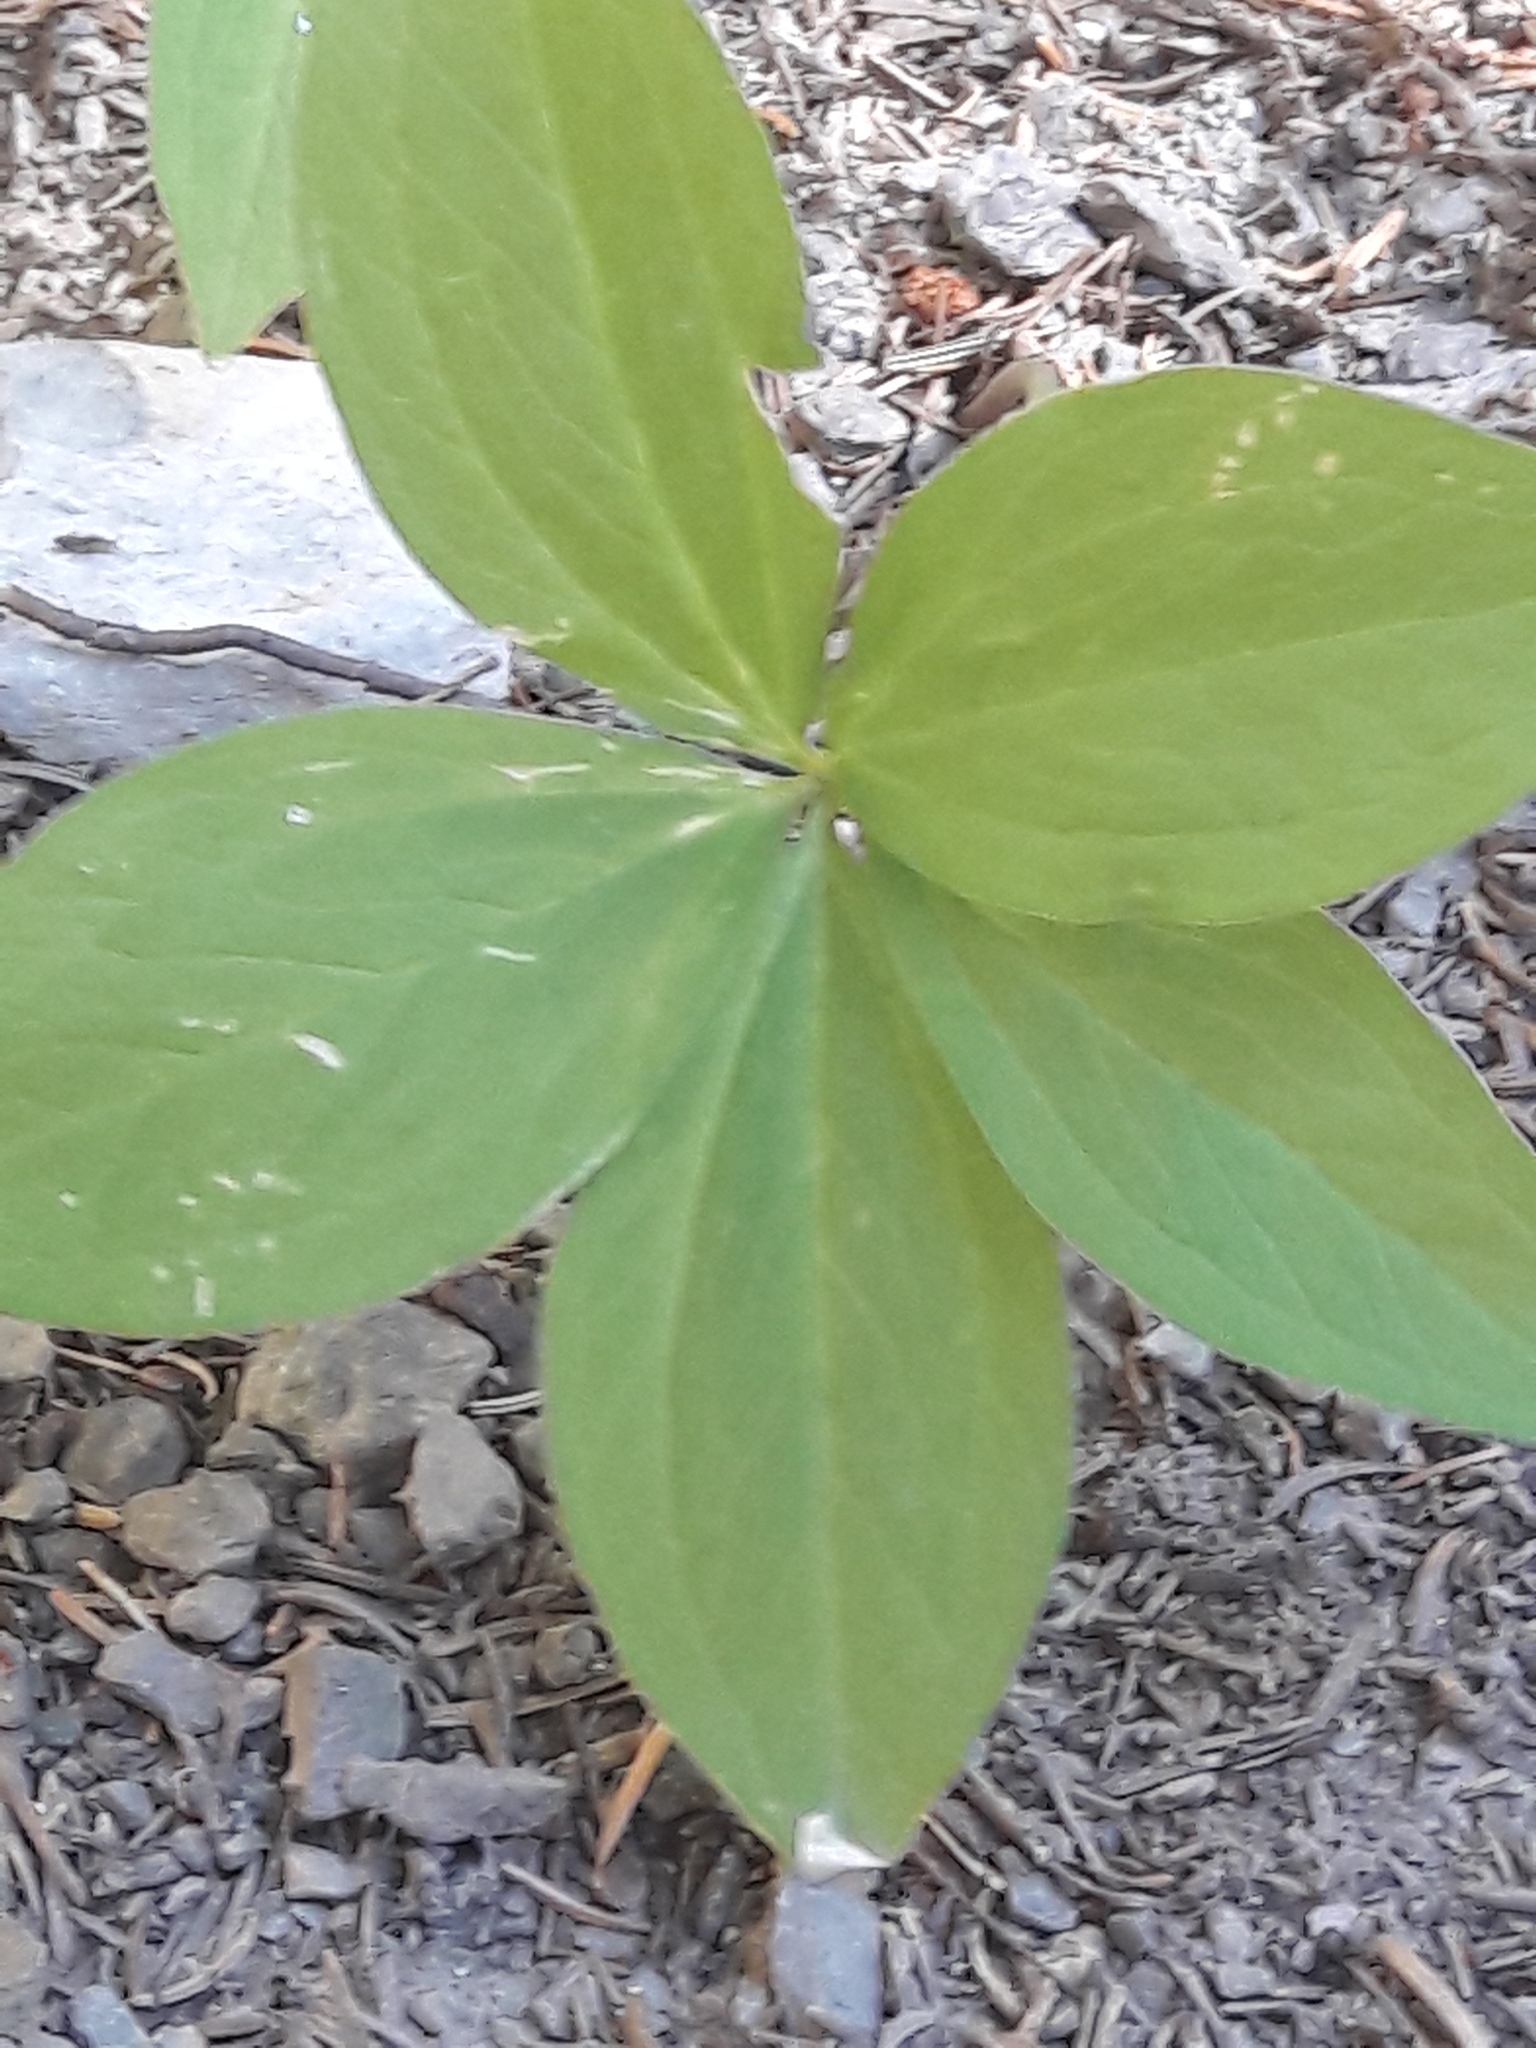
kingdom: Plantae
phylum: Tracheophyta
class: Liliopsida
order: Liliales
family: Melanthiaceae
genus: Paris
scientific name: Paris quadrifolia
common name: Herb-paris
